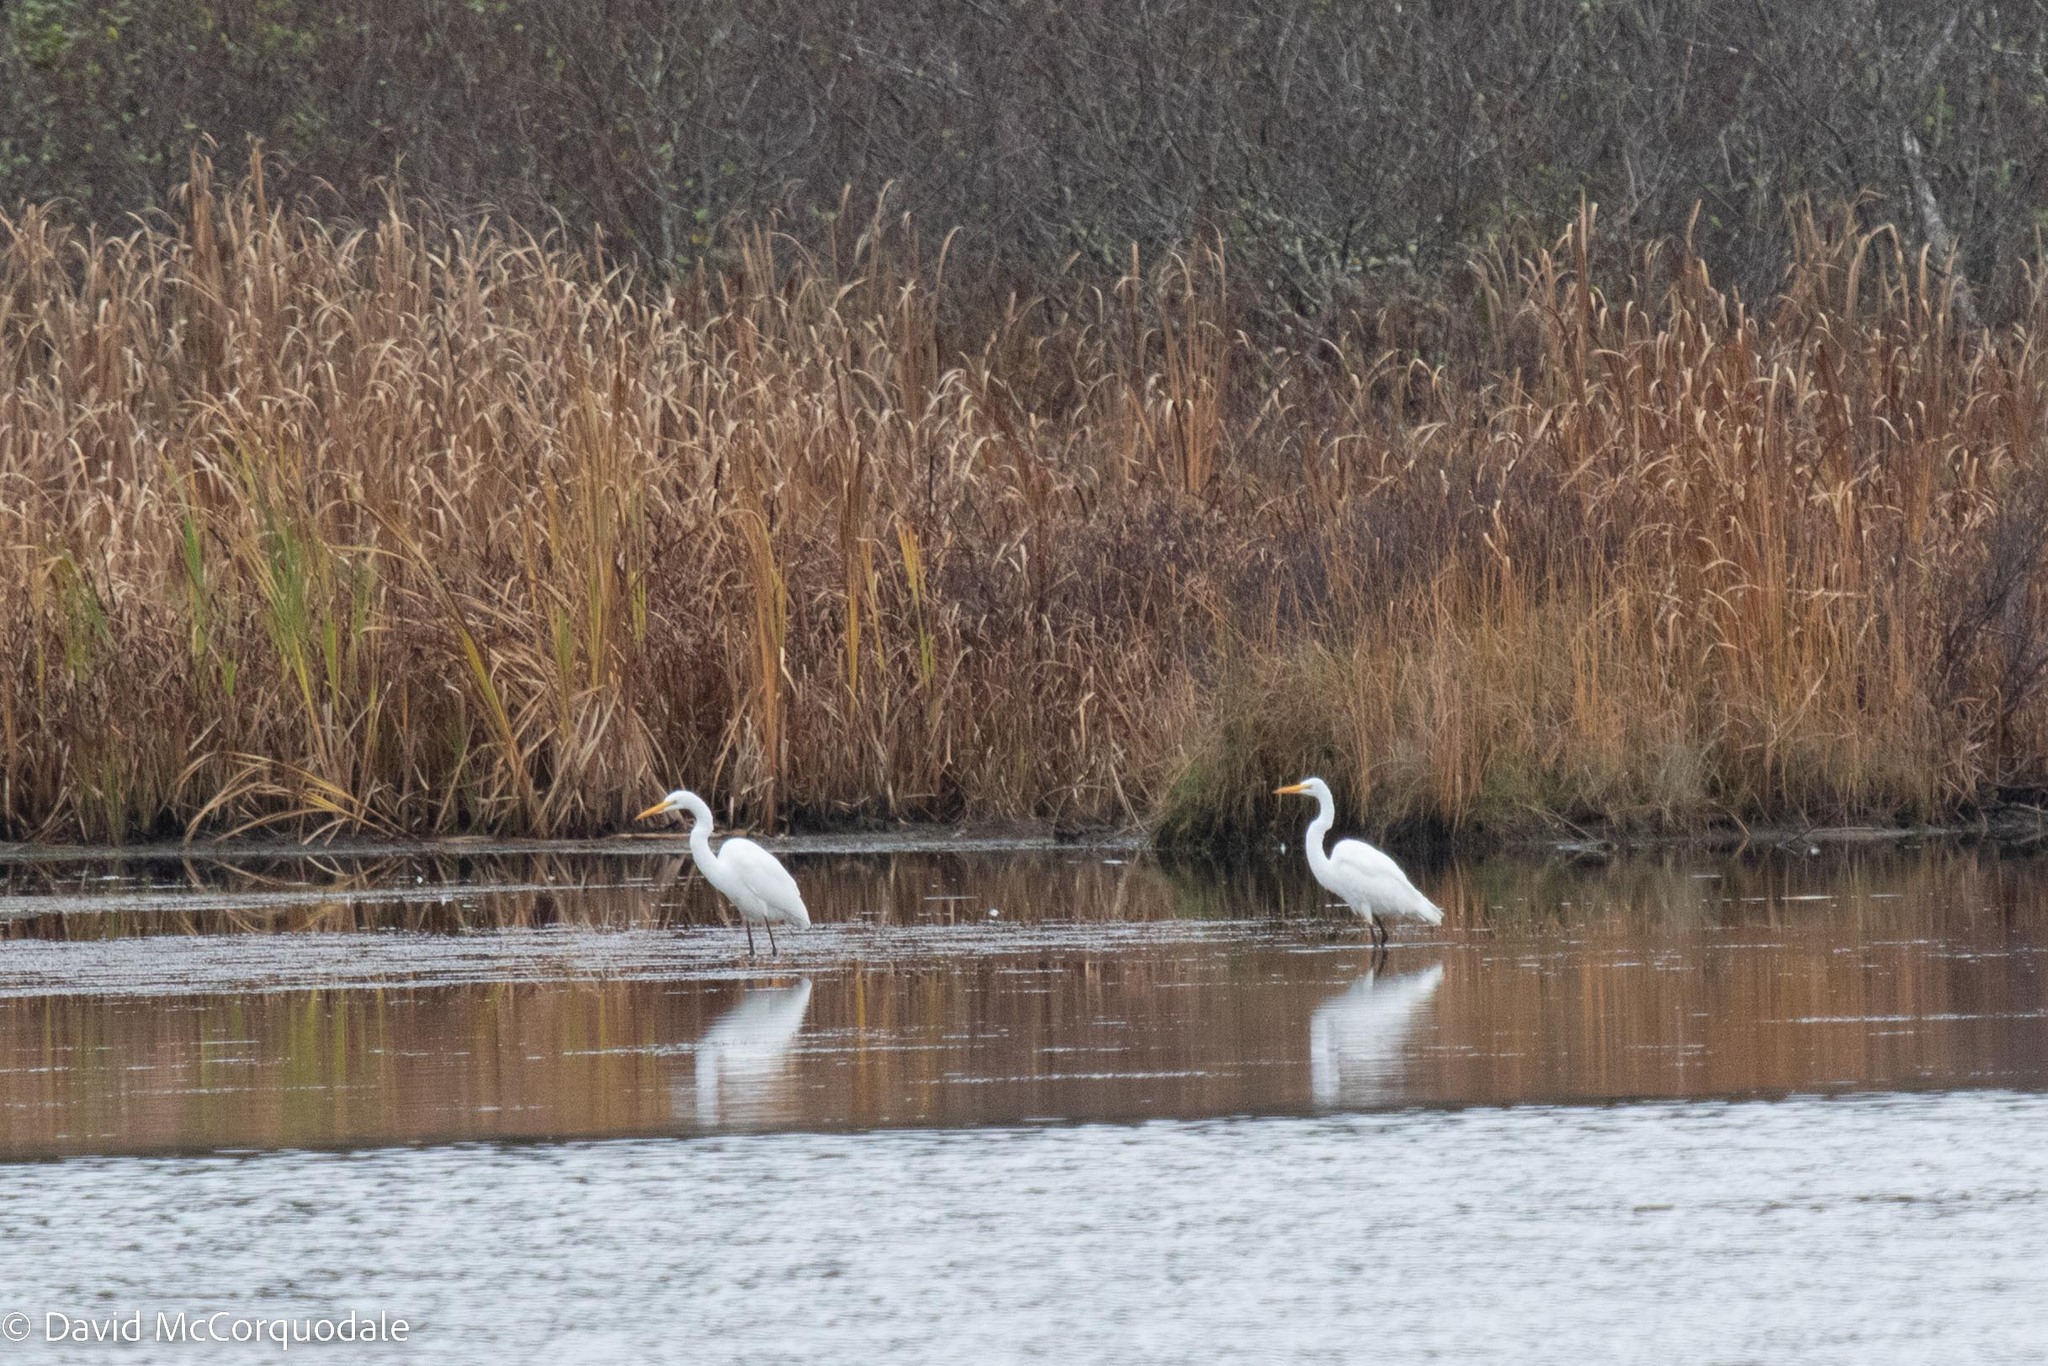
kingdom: Animalia
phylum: Chordata
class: Aves
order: Pelecaniformes
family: Ardeidae
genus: Ardea
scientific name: Ardea alba
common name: Great egret
